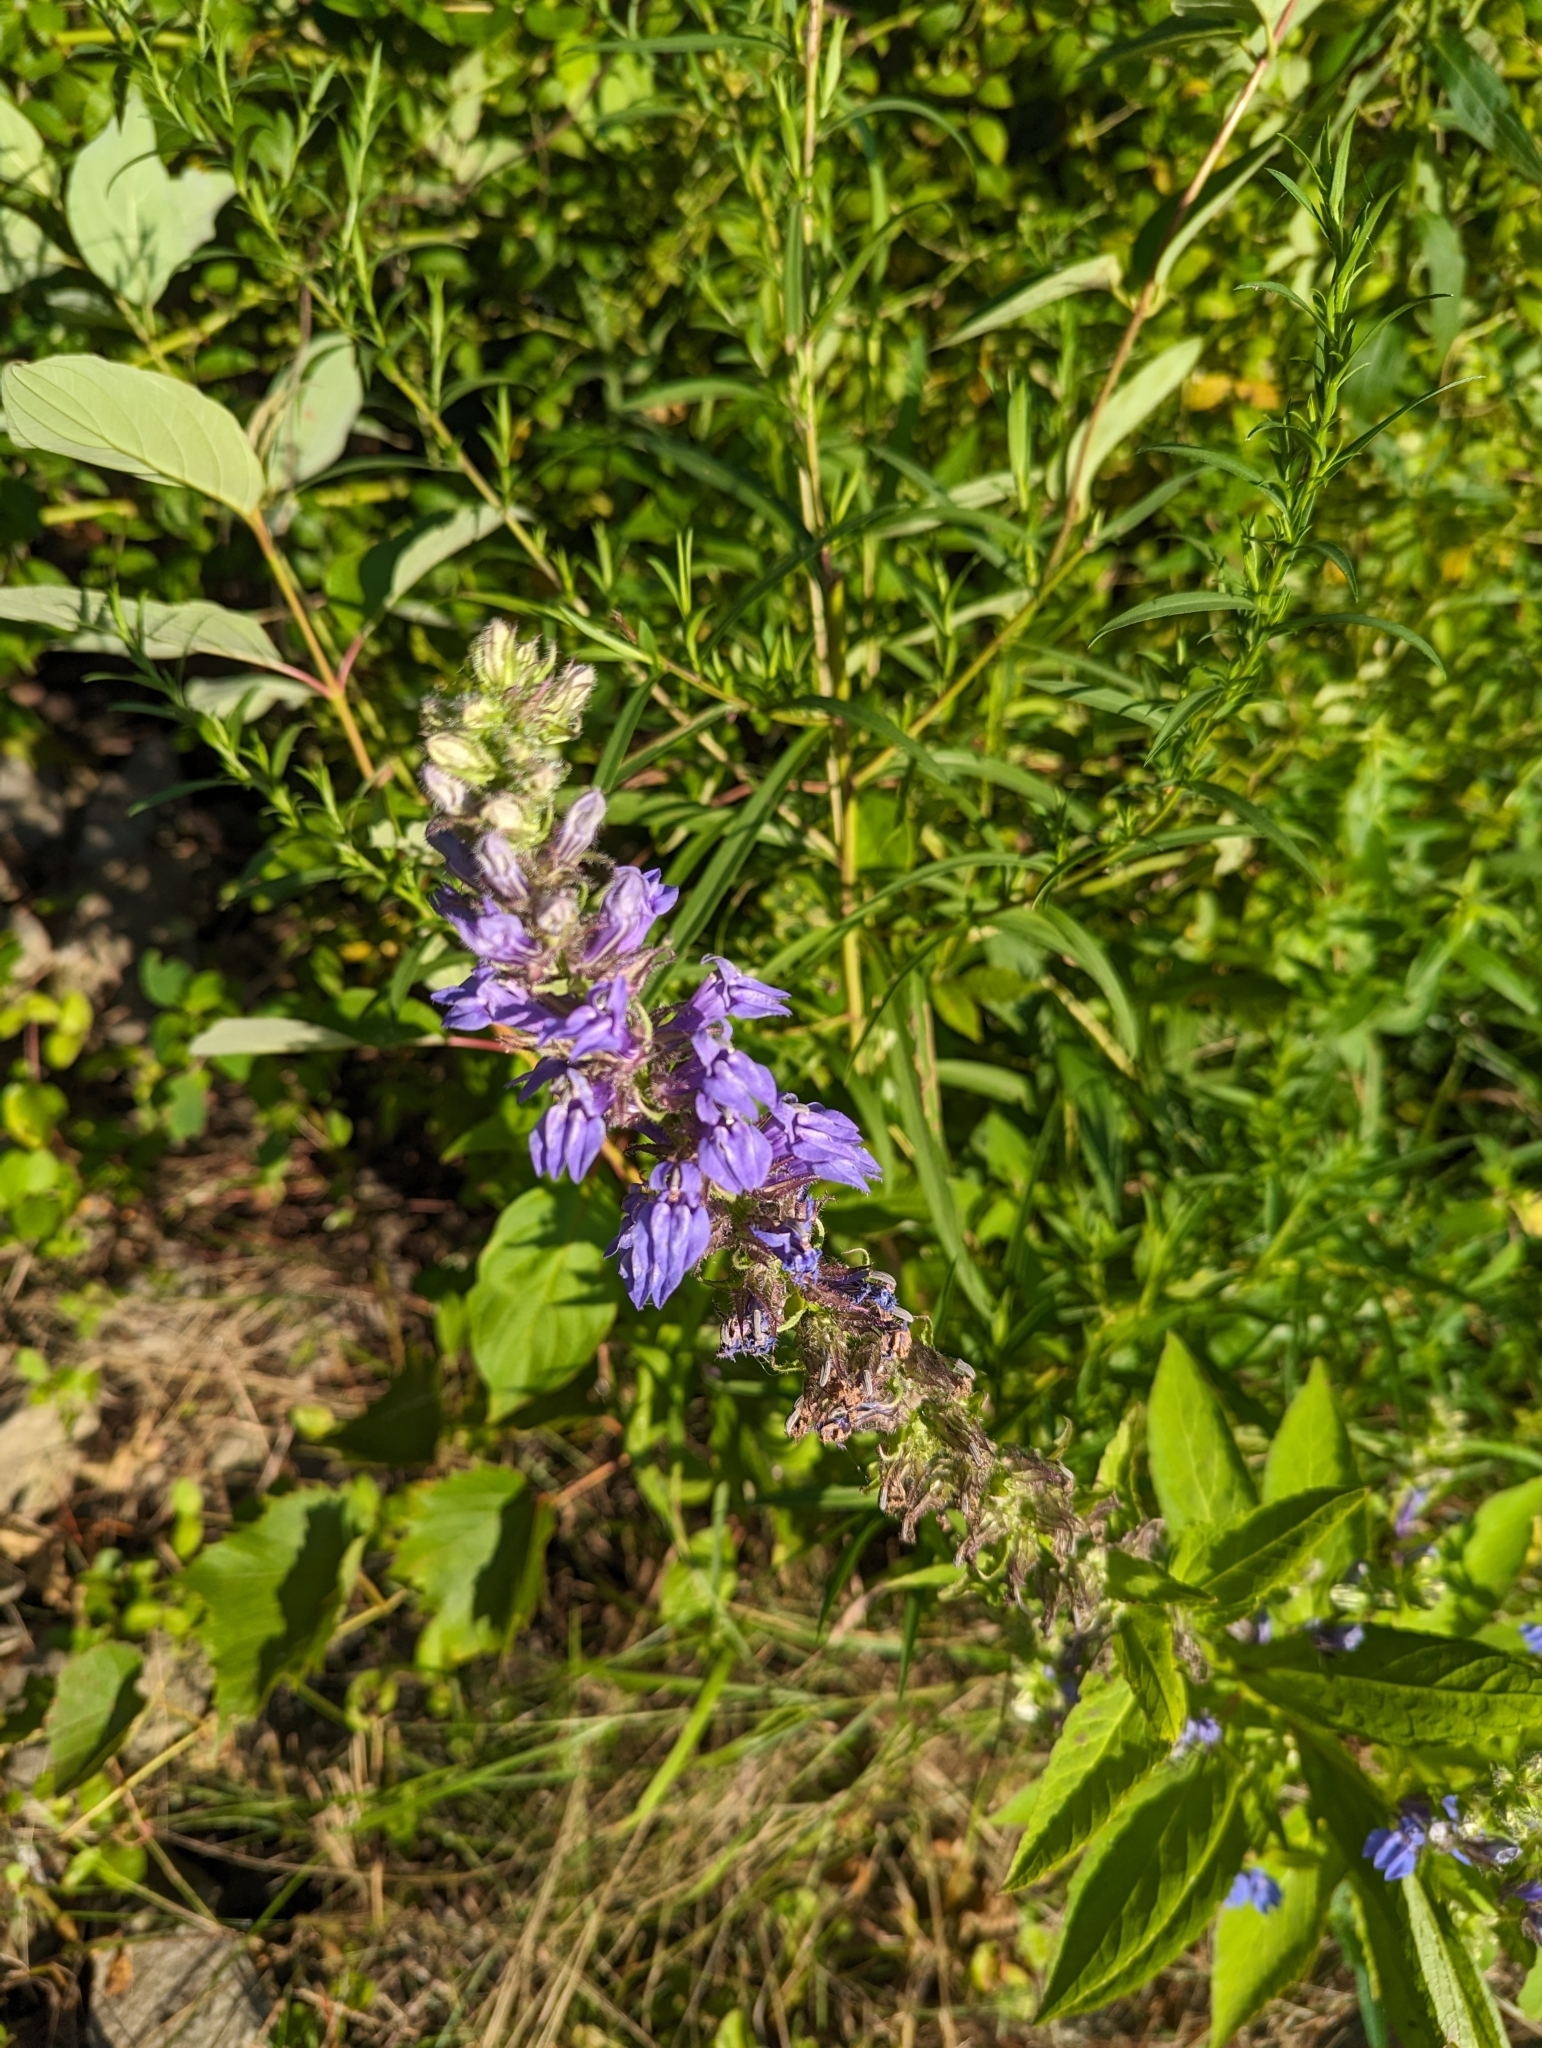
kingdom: Plantae
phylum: Tracheophyta
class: Magnoliopsida
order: Asterales
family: Campanulaceae
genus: Lobelia
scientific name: Lobelia siphilitica
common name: Great lobelia
